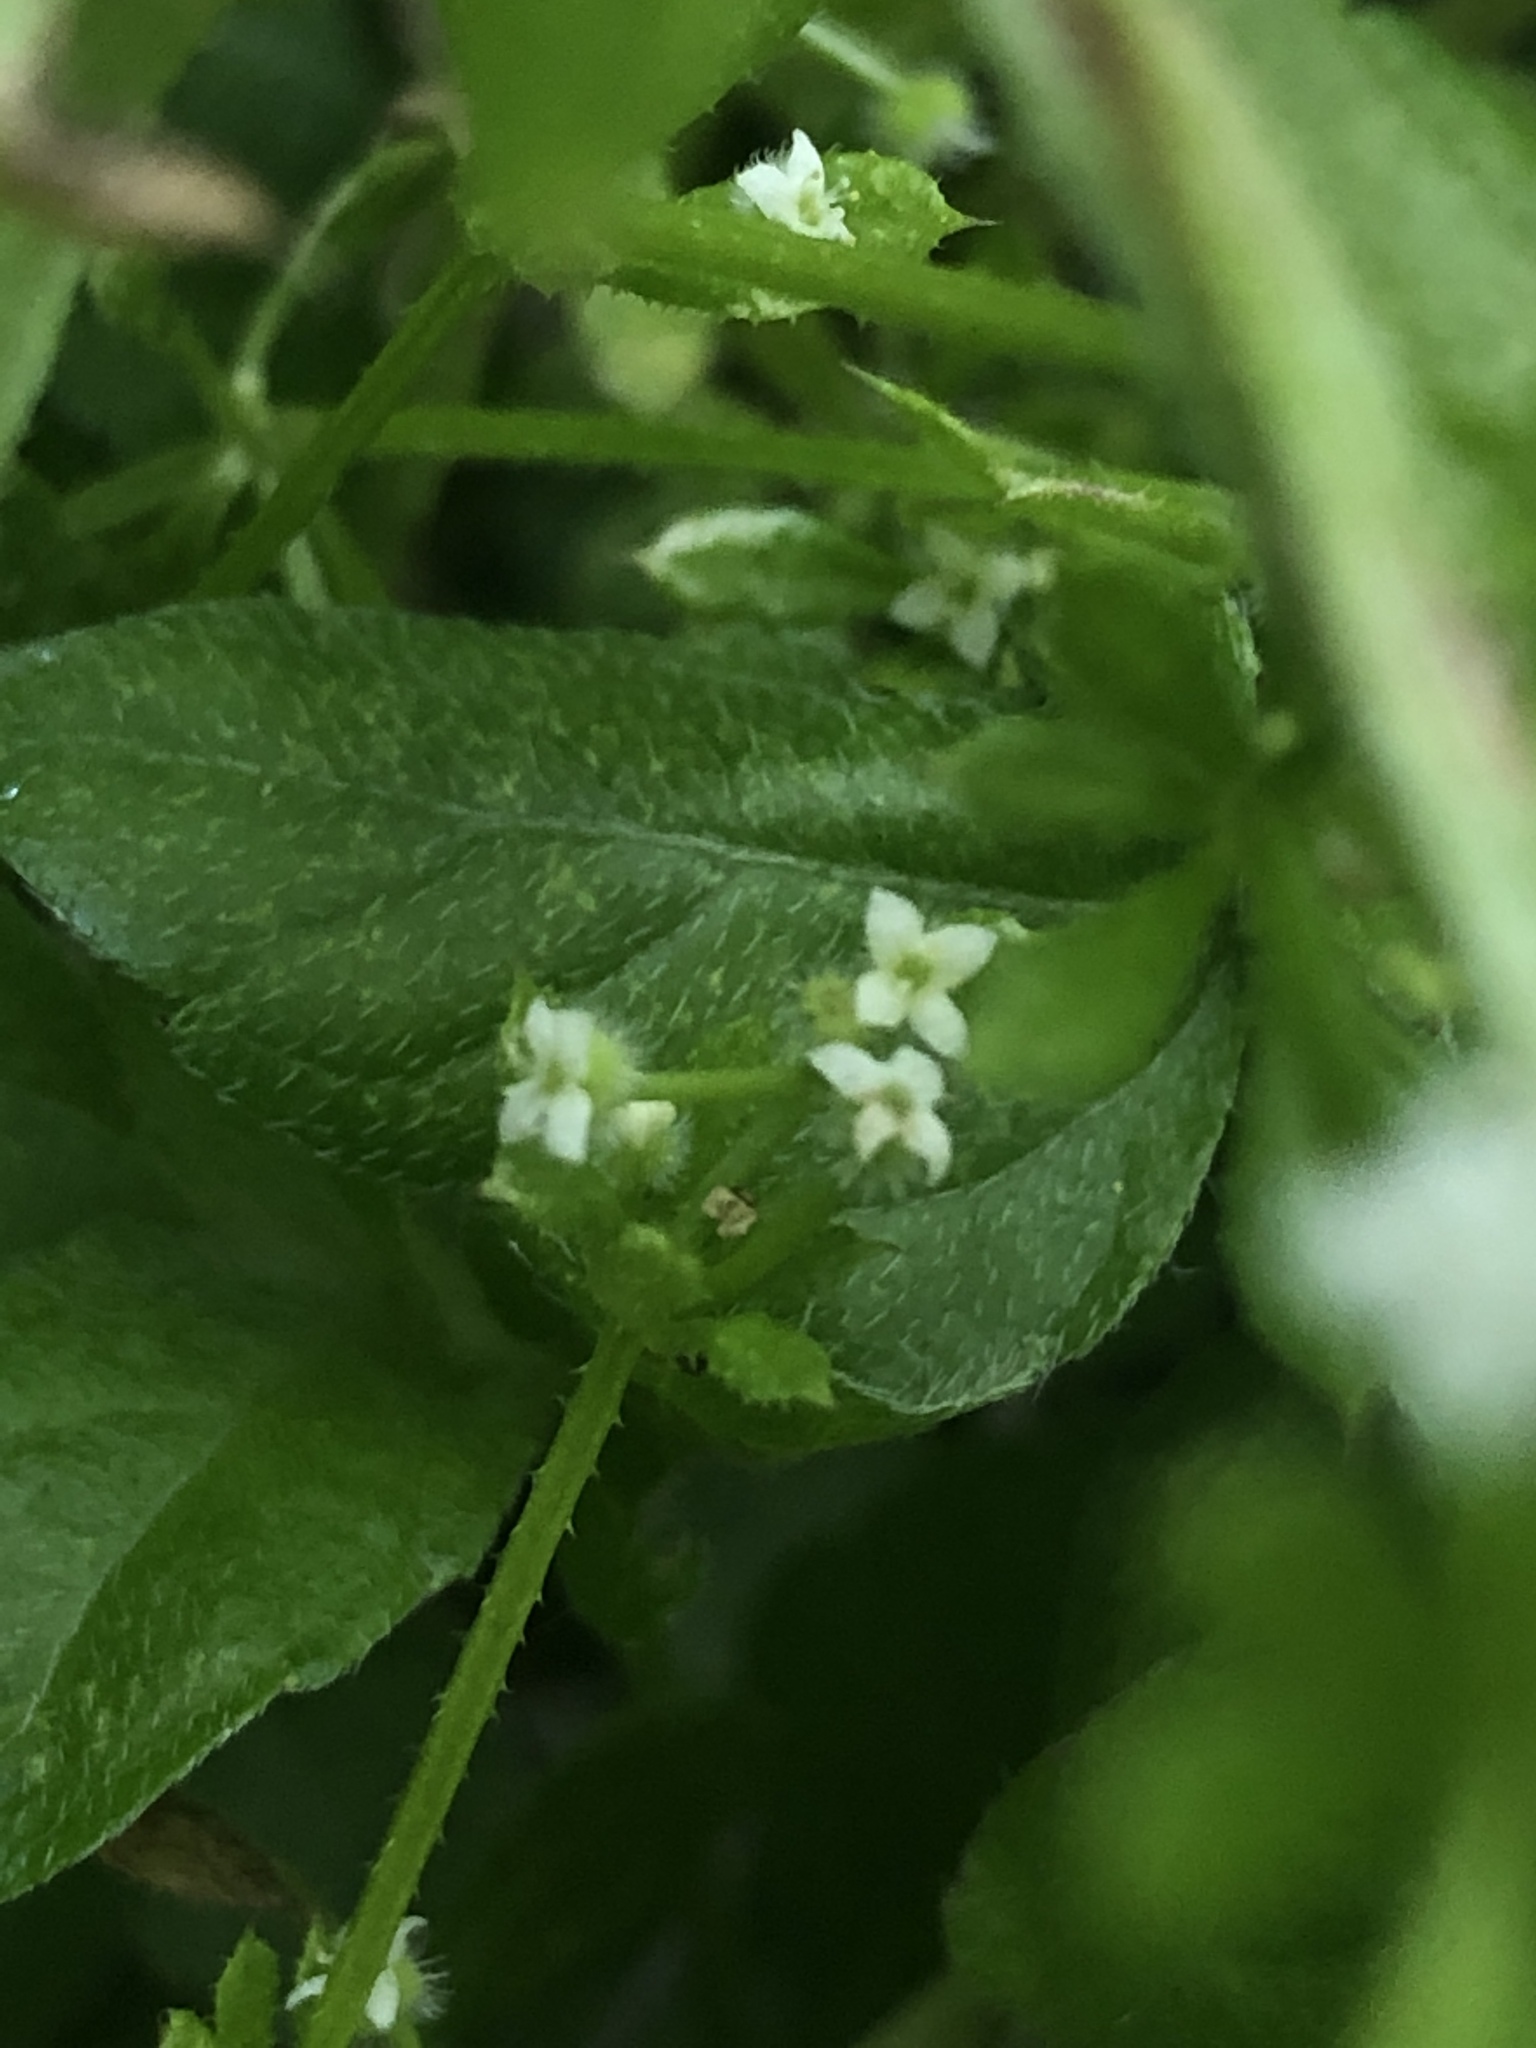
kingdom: Plantae
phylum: Tracheophyta
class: Magnoliopsida
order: Gentianales
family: Rubiaceae
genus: Galium
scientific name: Galium aparine
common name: Cleavers
